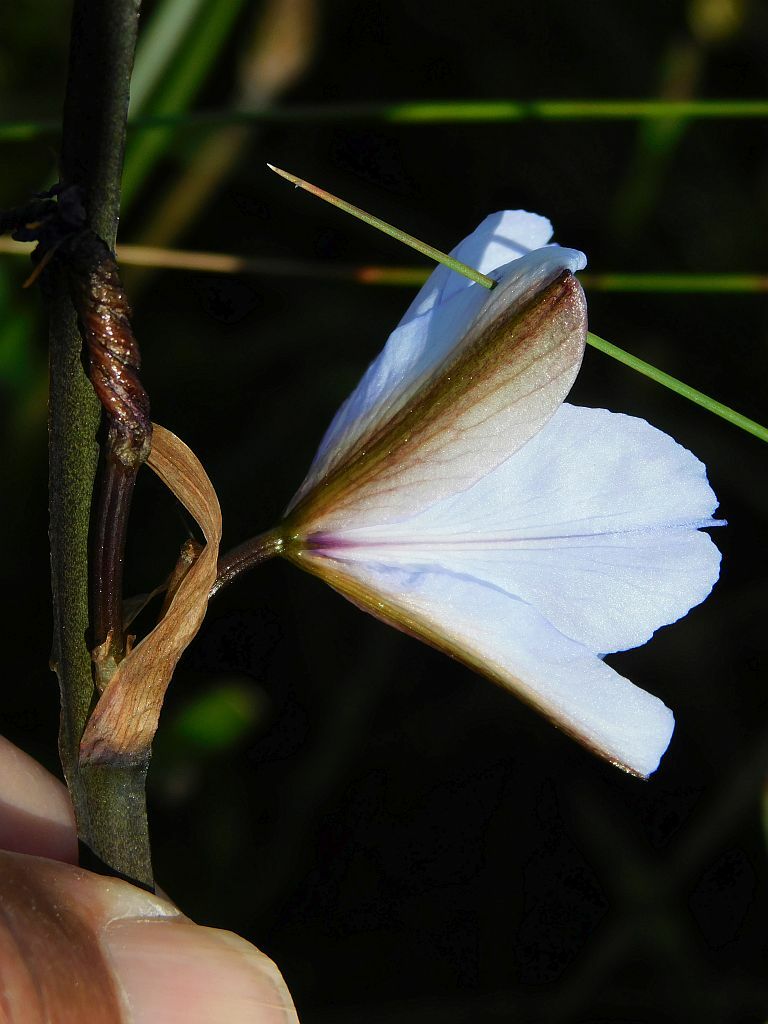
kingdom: Plantae
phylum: Tracheophyta
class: Liliopsida
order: Asparagales
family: Iridaceae
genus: Aristea
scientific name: Aristea spiralis
